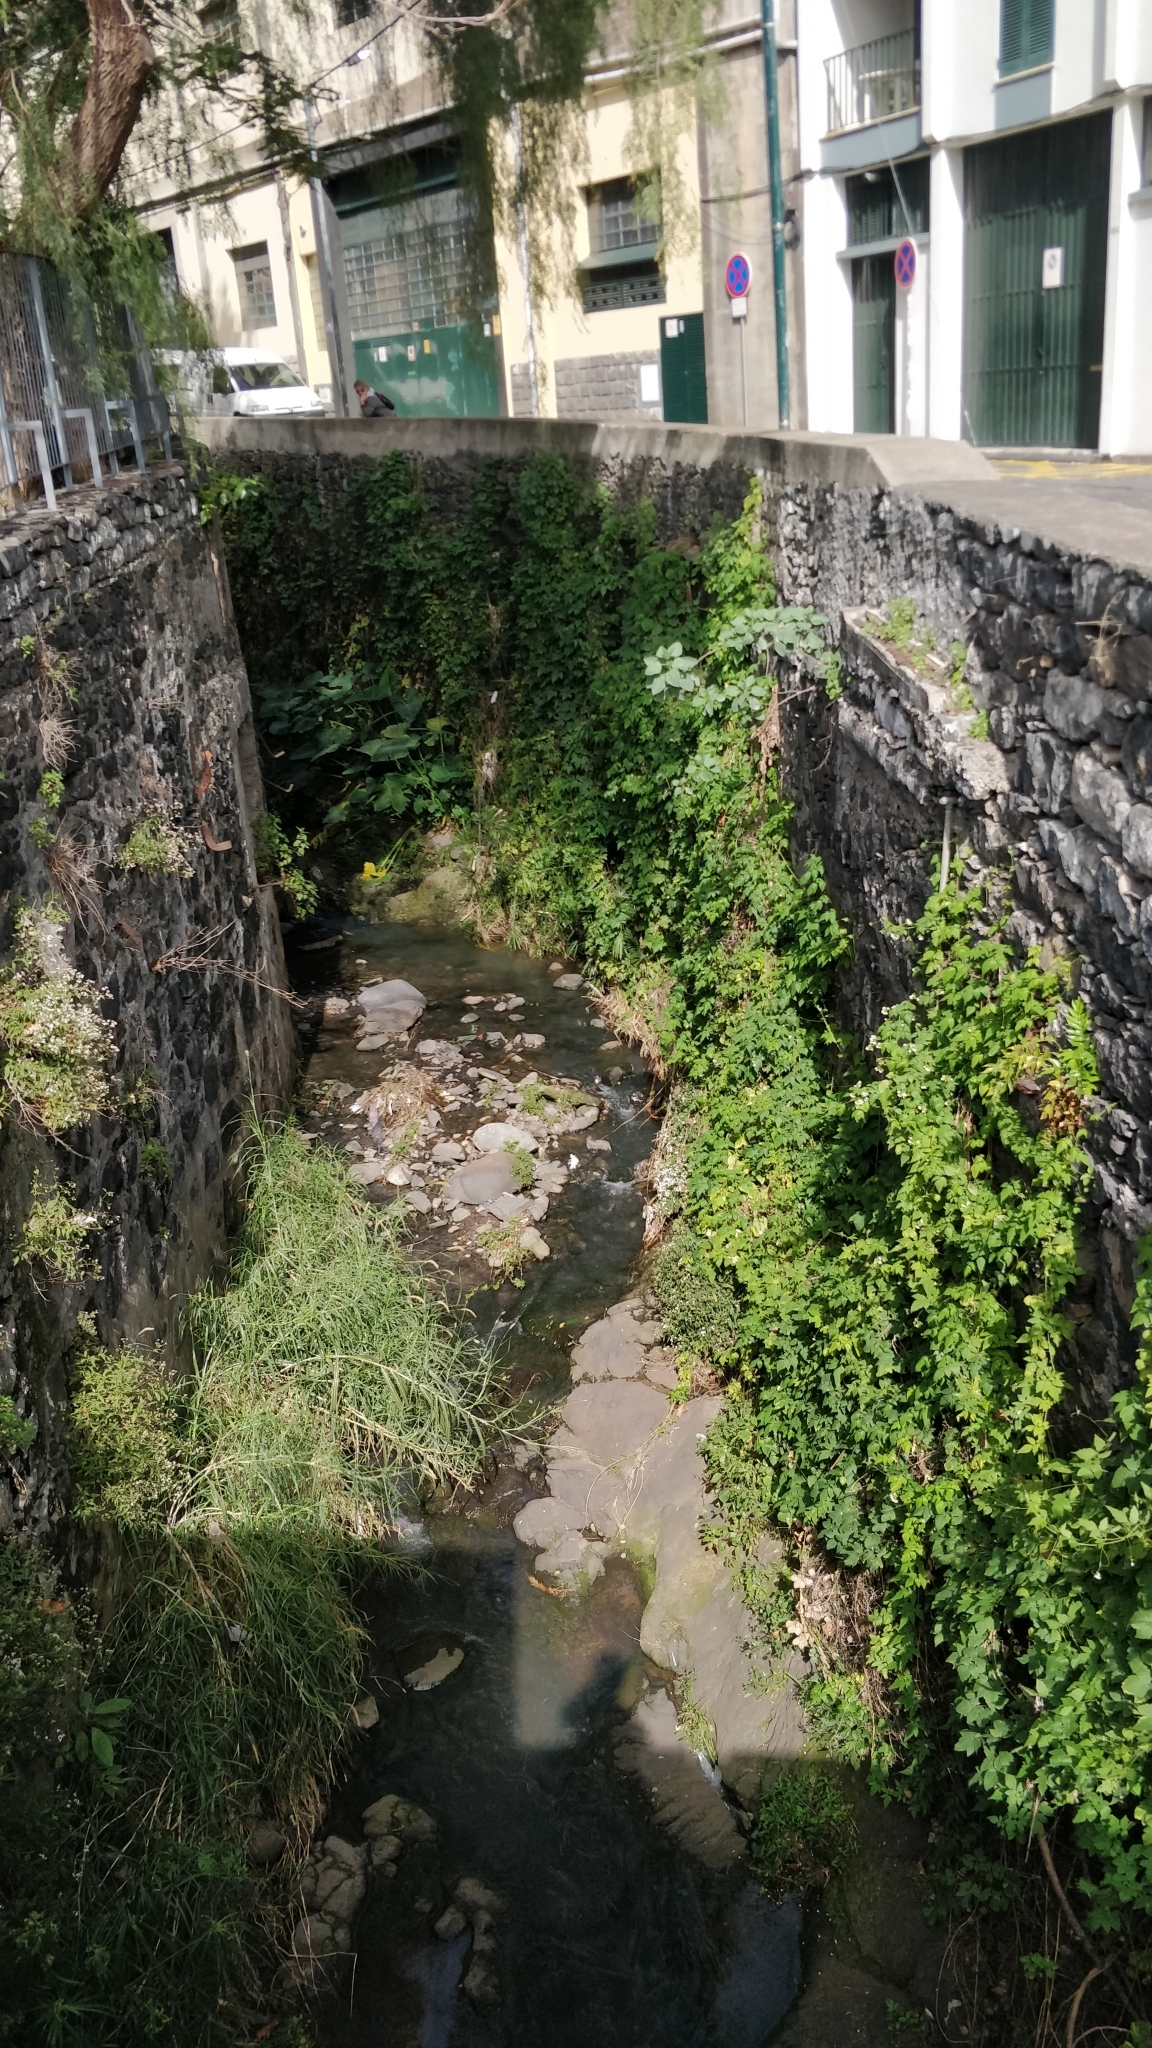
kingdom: Plantae
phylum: Tracheophyta
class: Liliopsida
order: Alismatales
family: Araceae
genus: Colocasia
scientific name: Colocasia esculenta
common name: Taro
